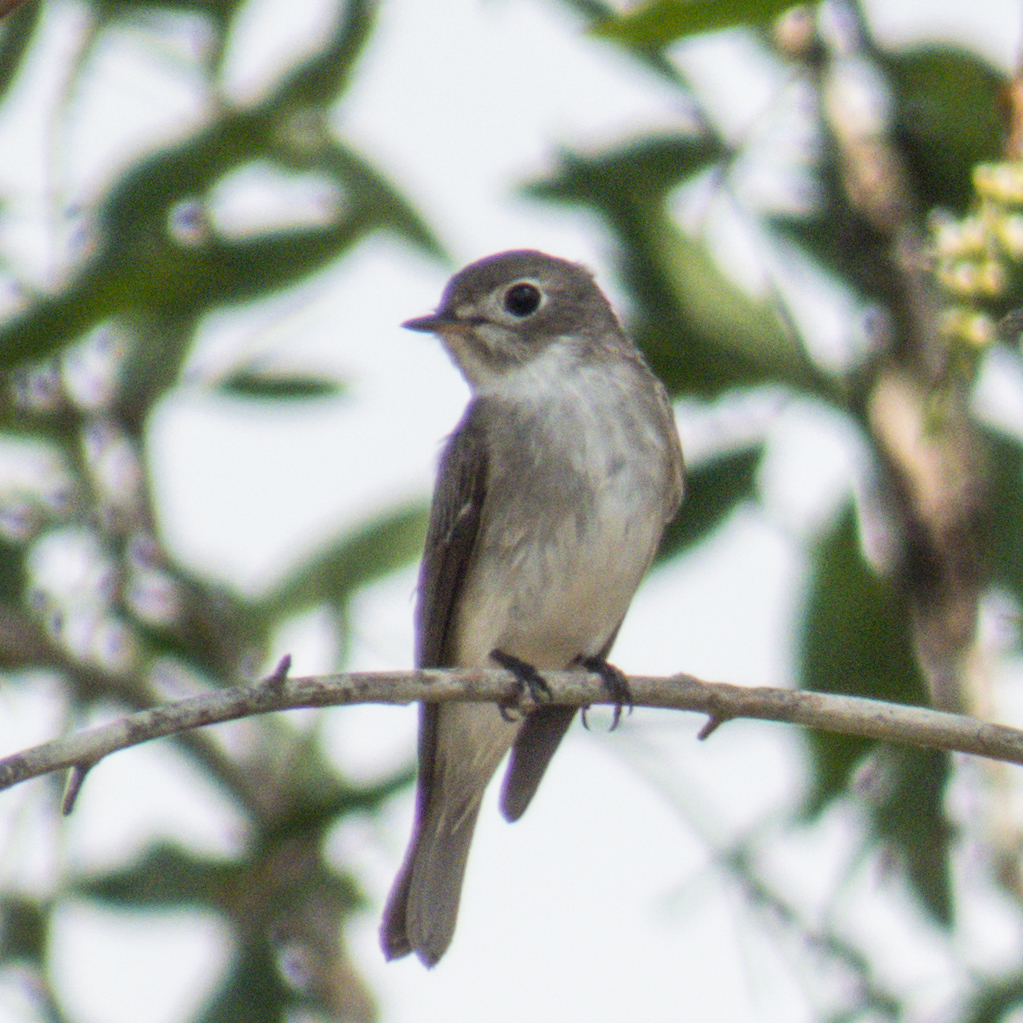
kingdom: Animalia
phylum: Chordata
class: Aves
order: Passeriformes
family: Muscicapidae
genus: Muscicapa
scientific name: Muscicapa latirostris
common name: Asian brown flycatcher
